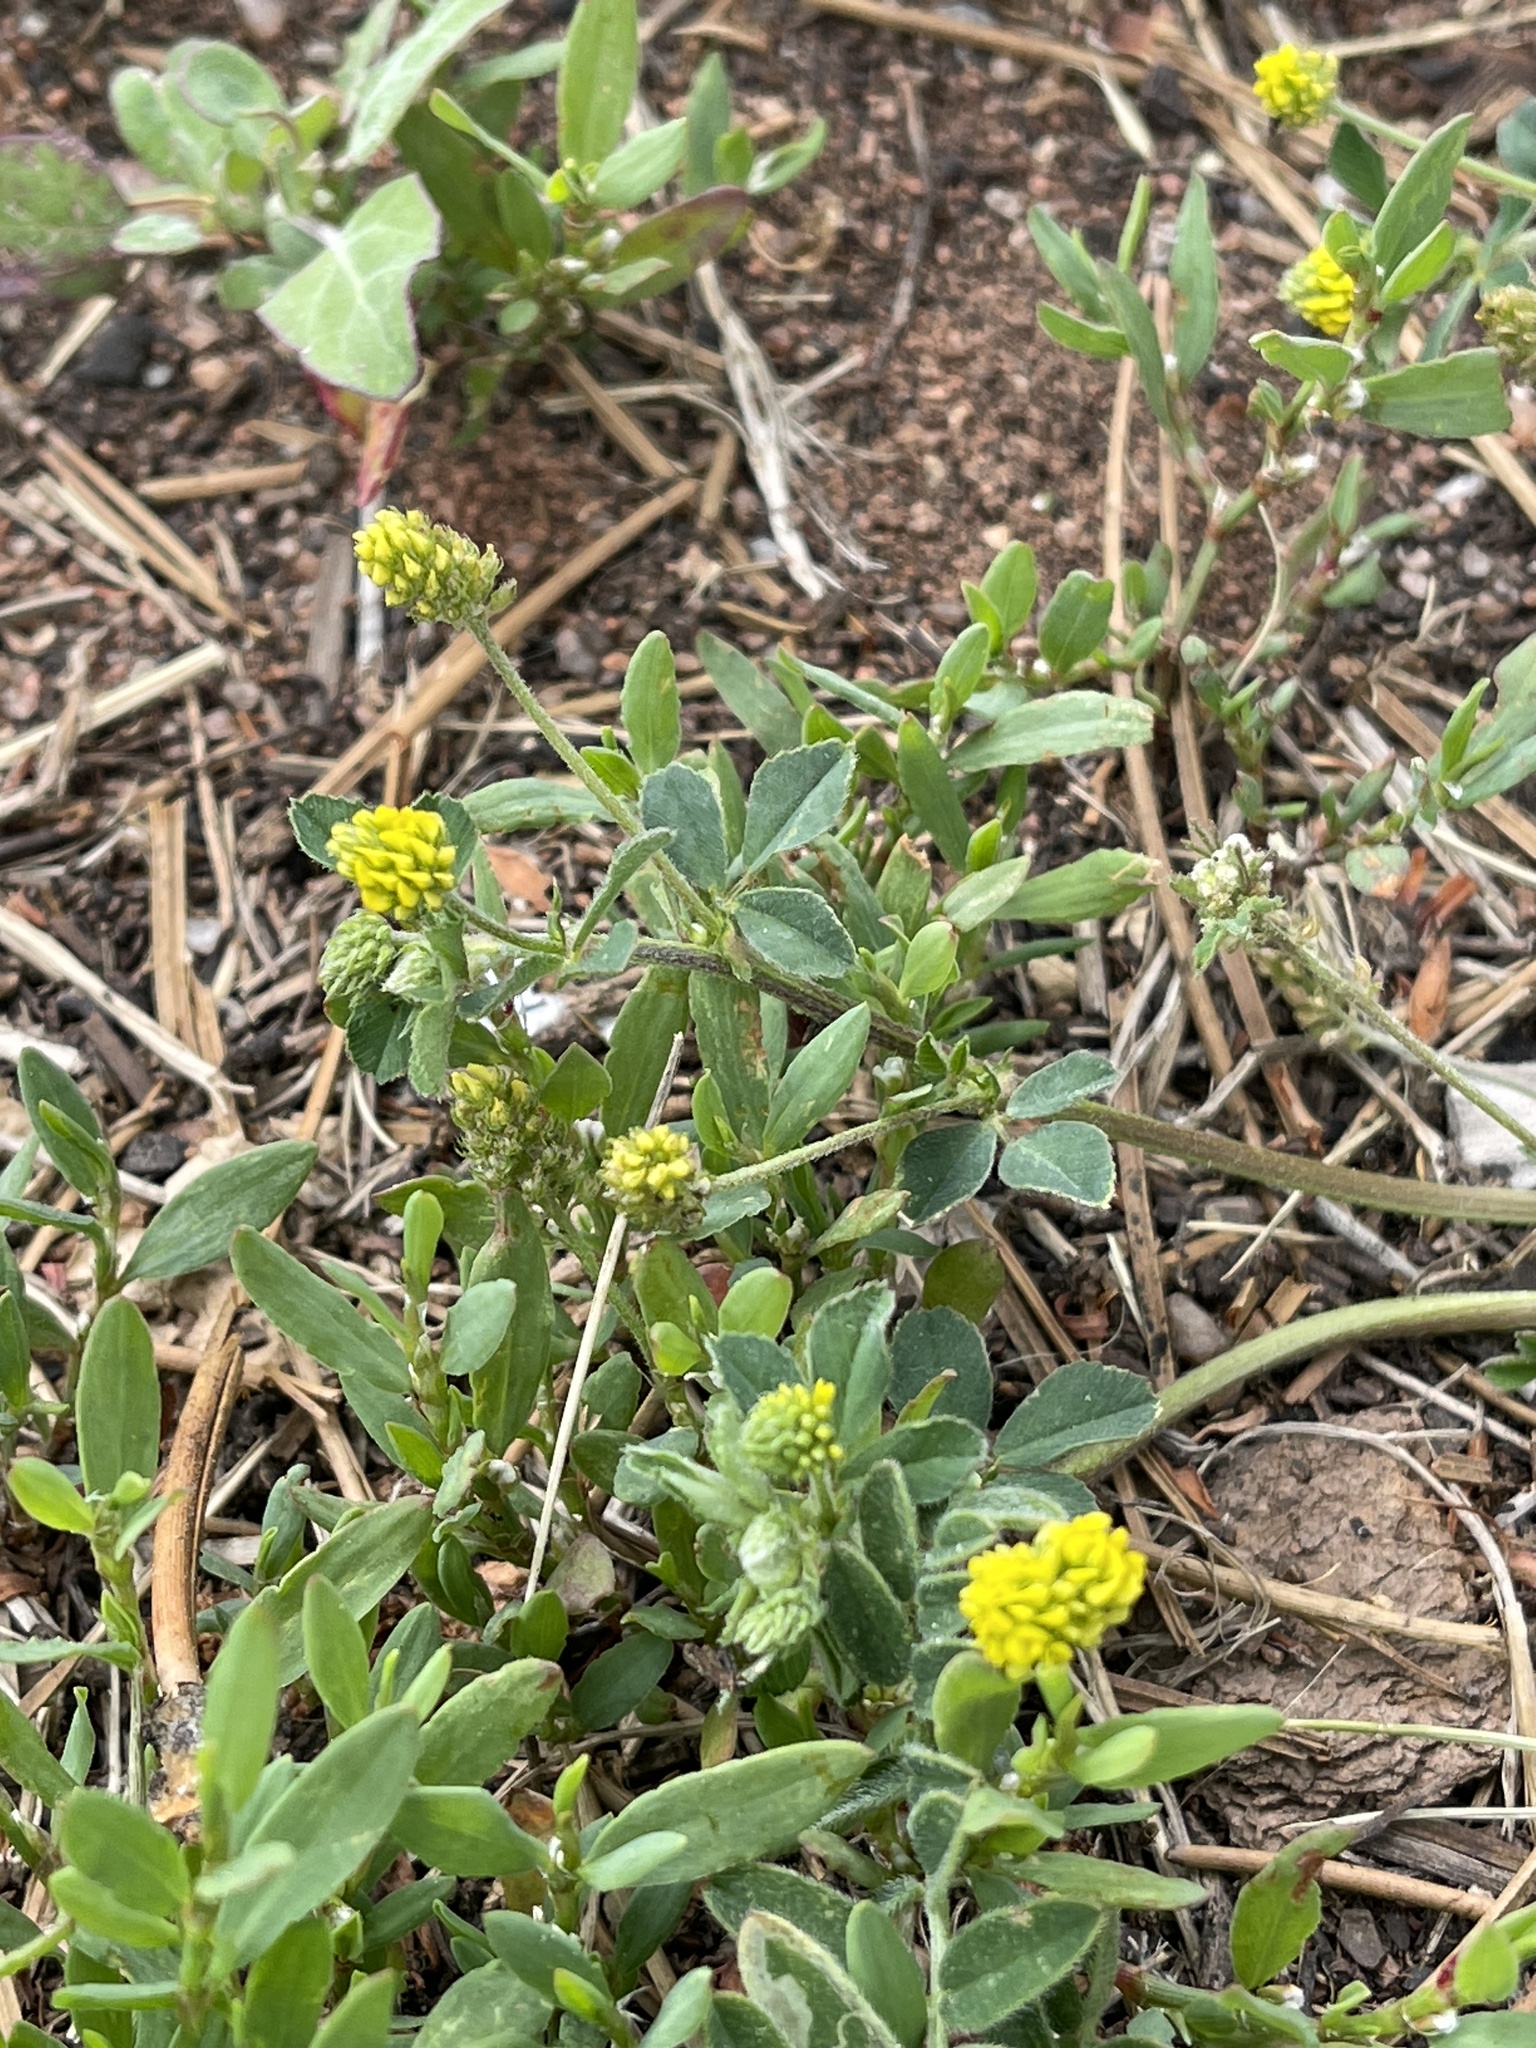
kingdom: Plantae
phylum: Tracheophyta
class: Magnoliopsida
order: Fabales
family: Fabaceae
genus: Medicago
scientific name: Medicago lupulina
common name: Black medick
